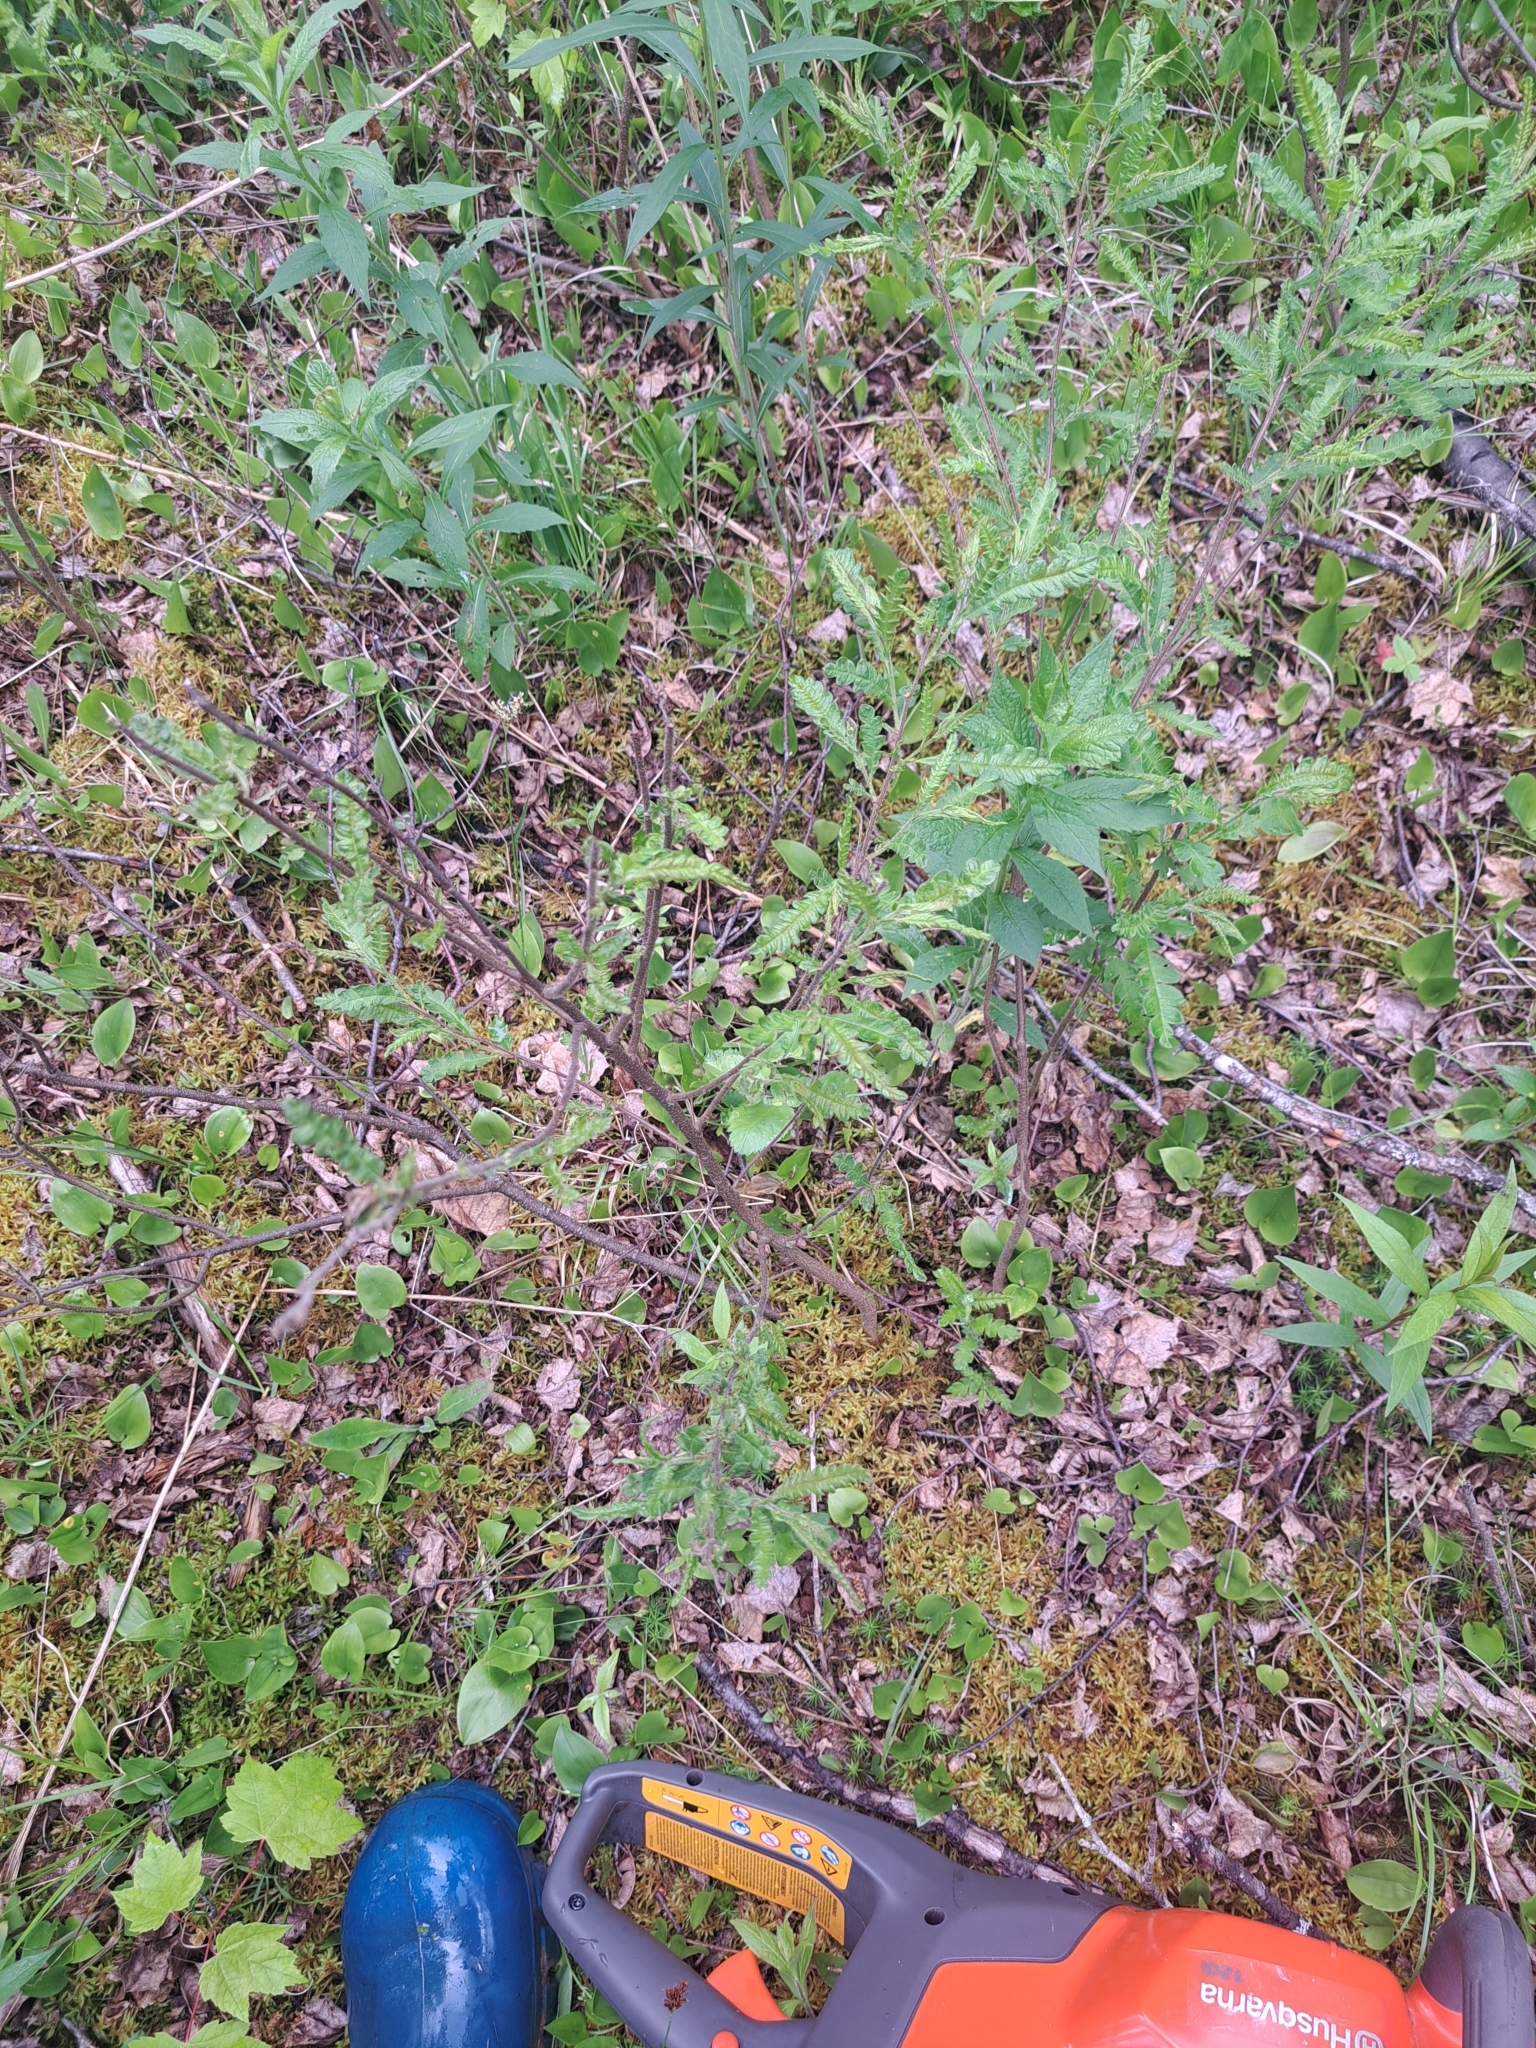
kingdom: Plantae
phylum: Tracheophyta
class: Magnoliopsida
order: Fagales
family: Myricaceae
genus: Comptonia
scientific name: Comptonia peregrina
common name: Sweet-fern
